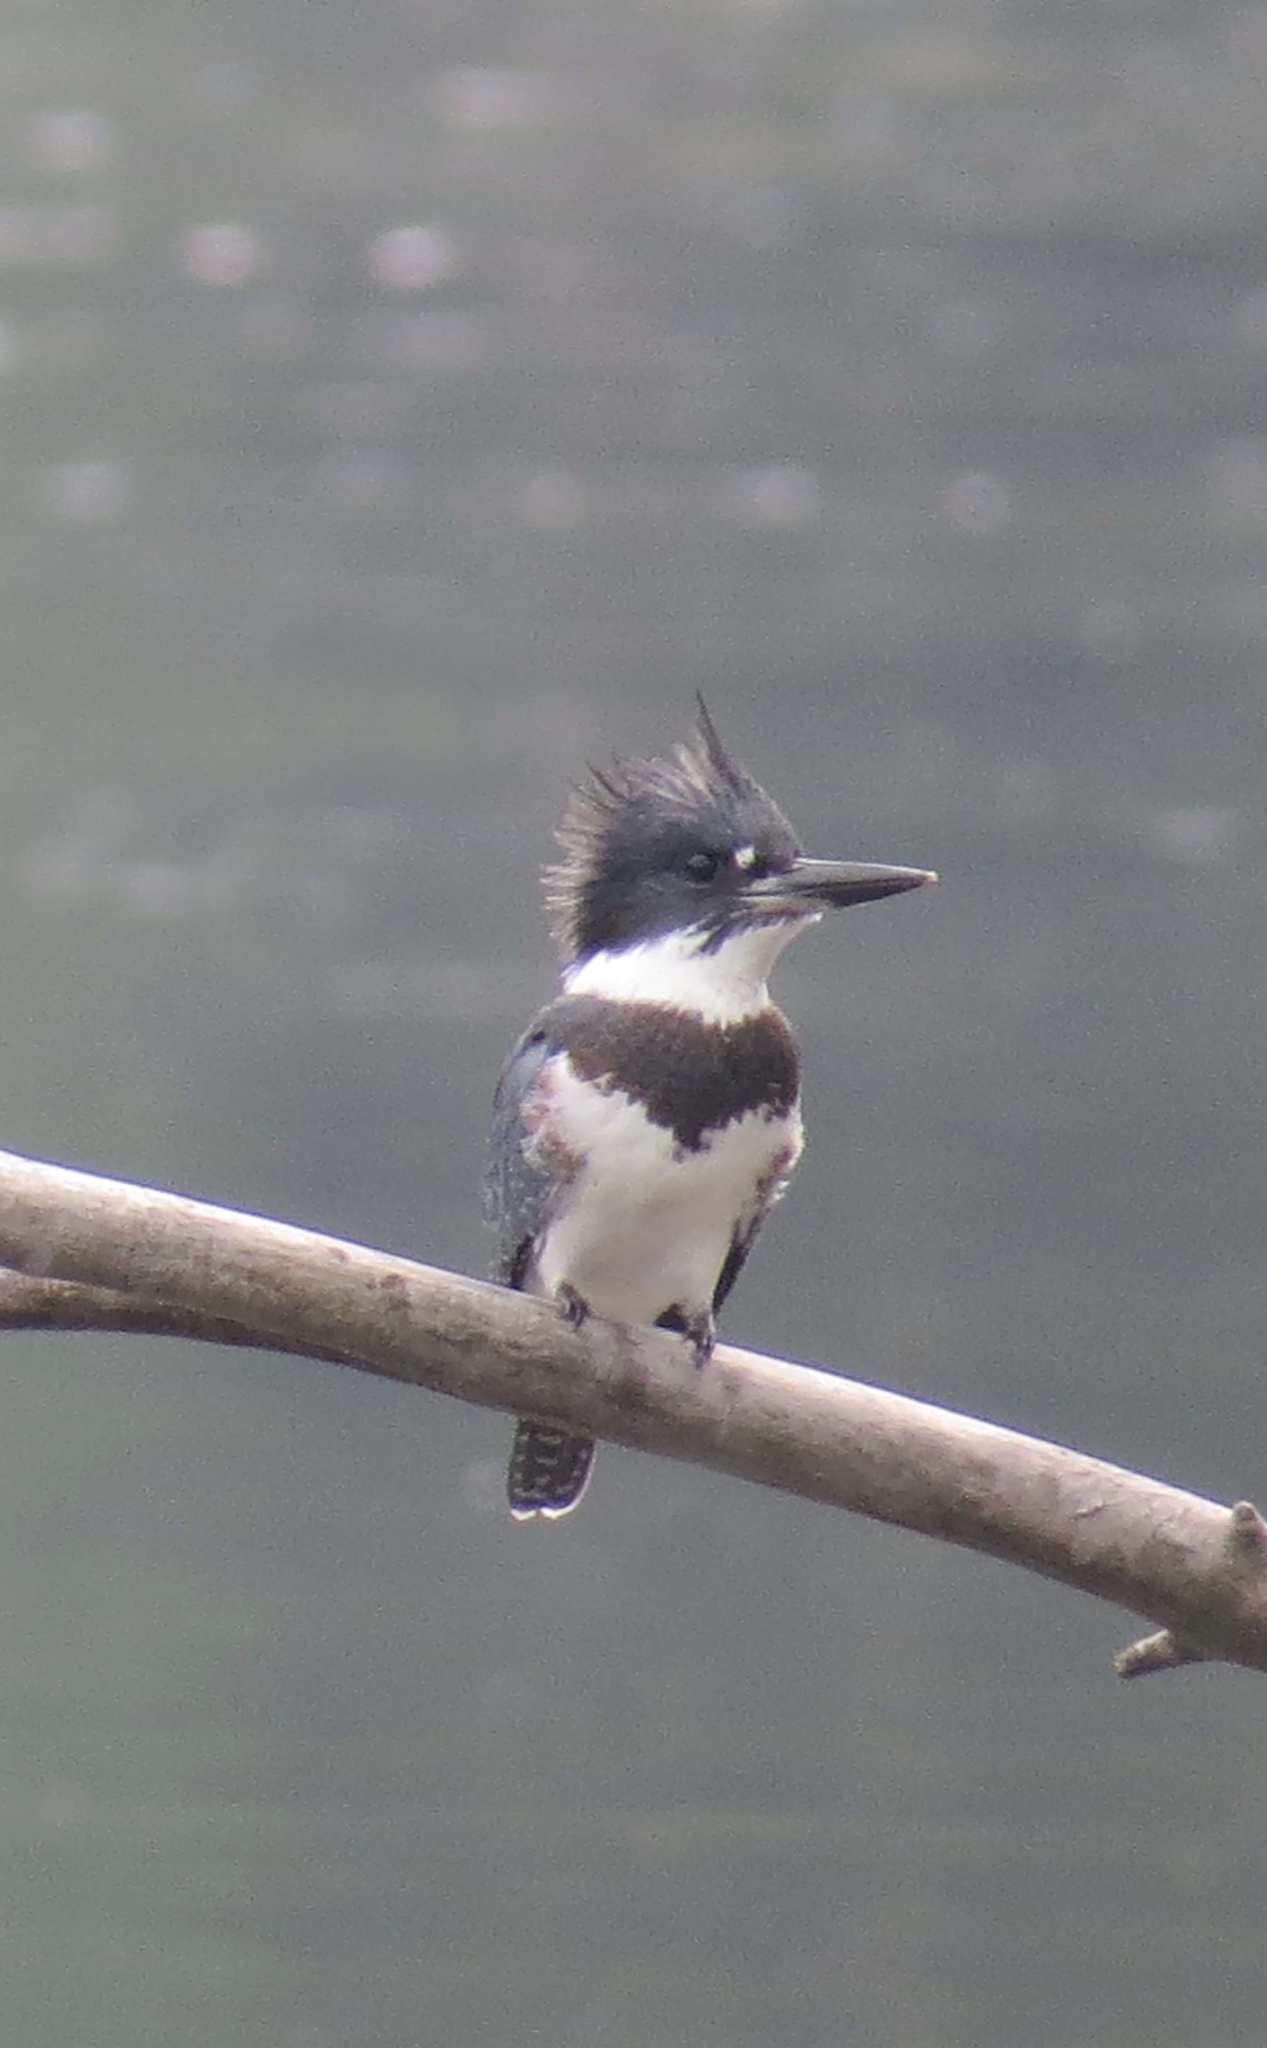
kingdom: Animalia
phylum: Chordata
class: Aves
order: Coraciiformes
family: Alcedinidae
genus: Megaceryle
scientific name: Megaceryle alcyon
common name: Belted kingfisher
